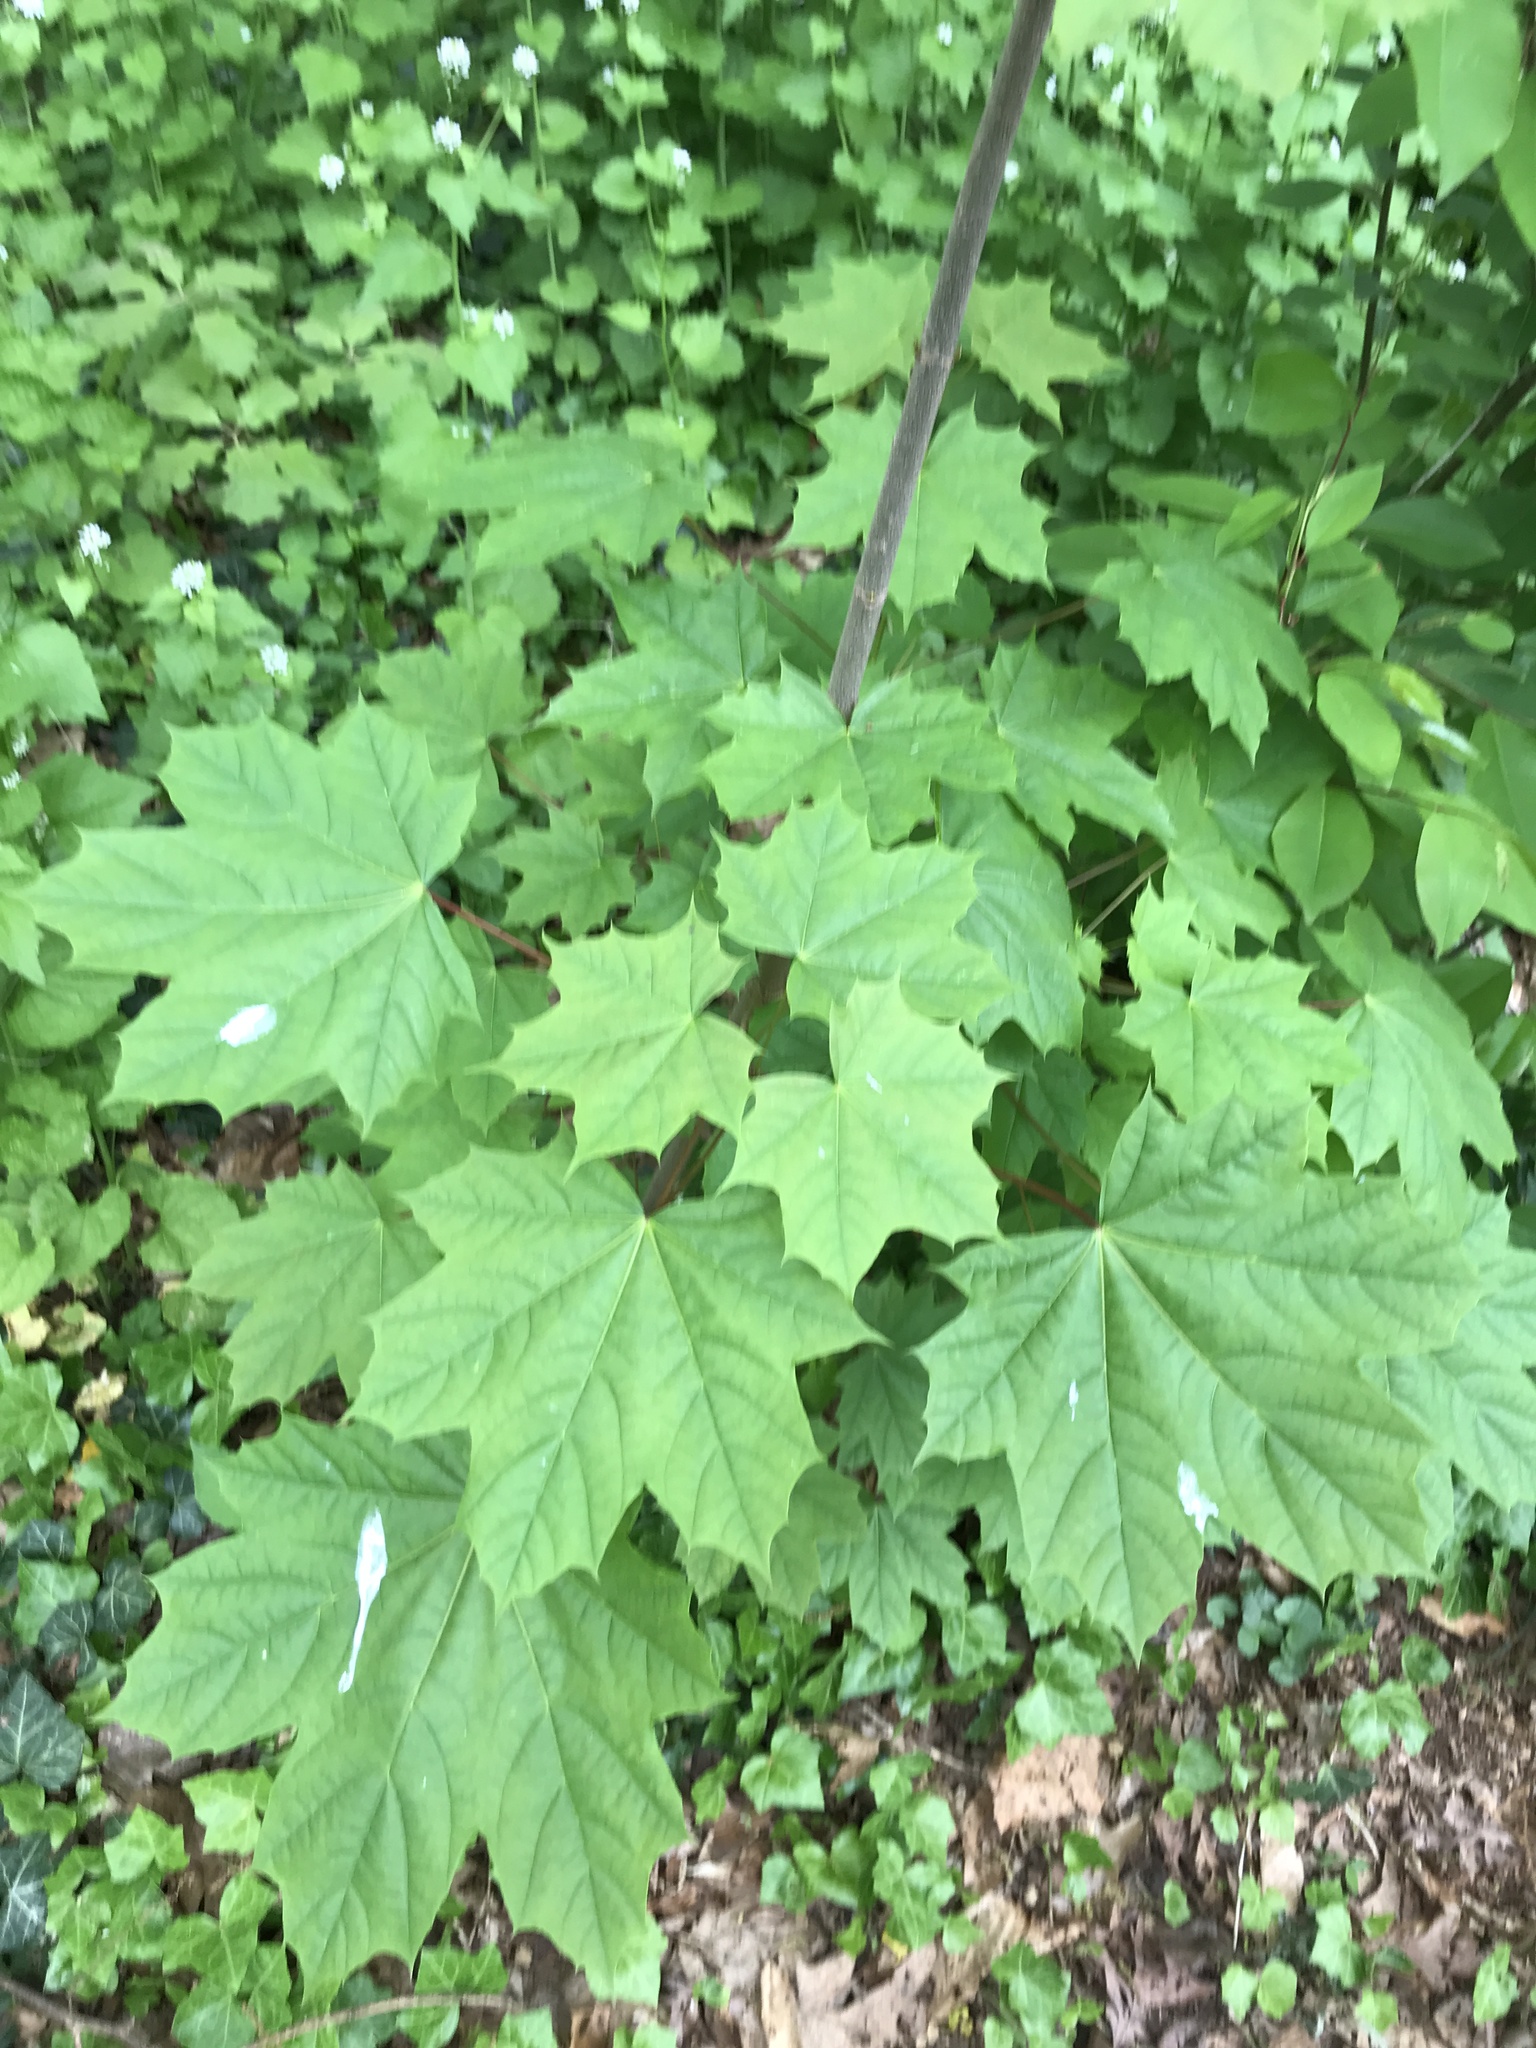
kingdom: Plantae
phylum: Tracheophyta
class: Magnoliopsida
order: Sapindales
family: Sapindaceae
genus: Acer
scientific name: Acer platanoides
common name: Norway maple
